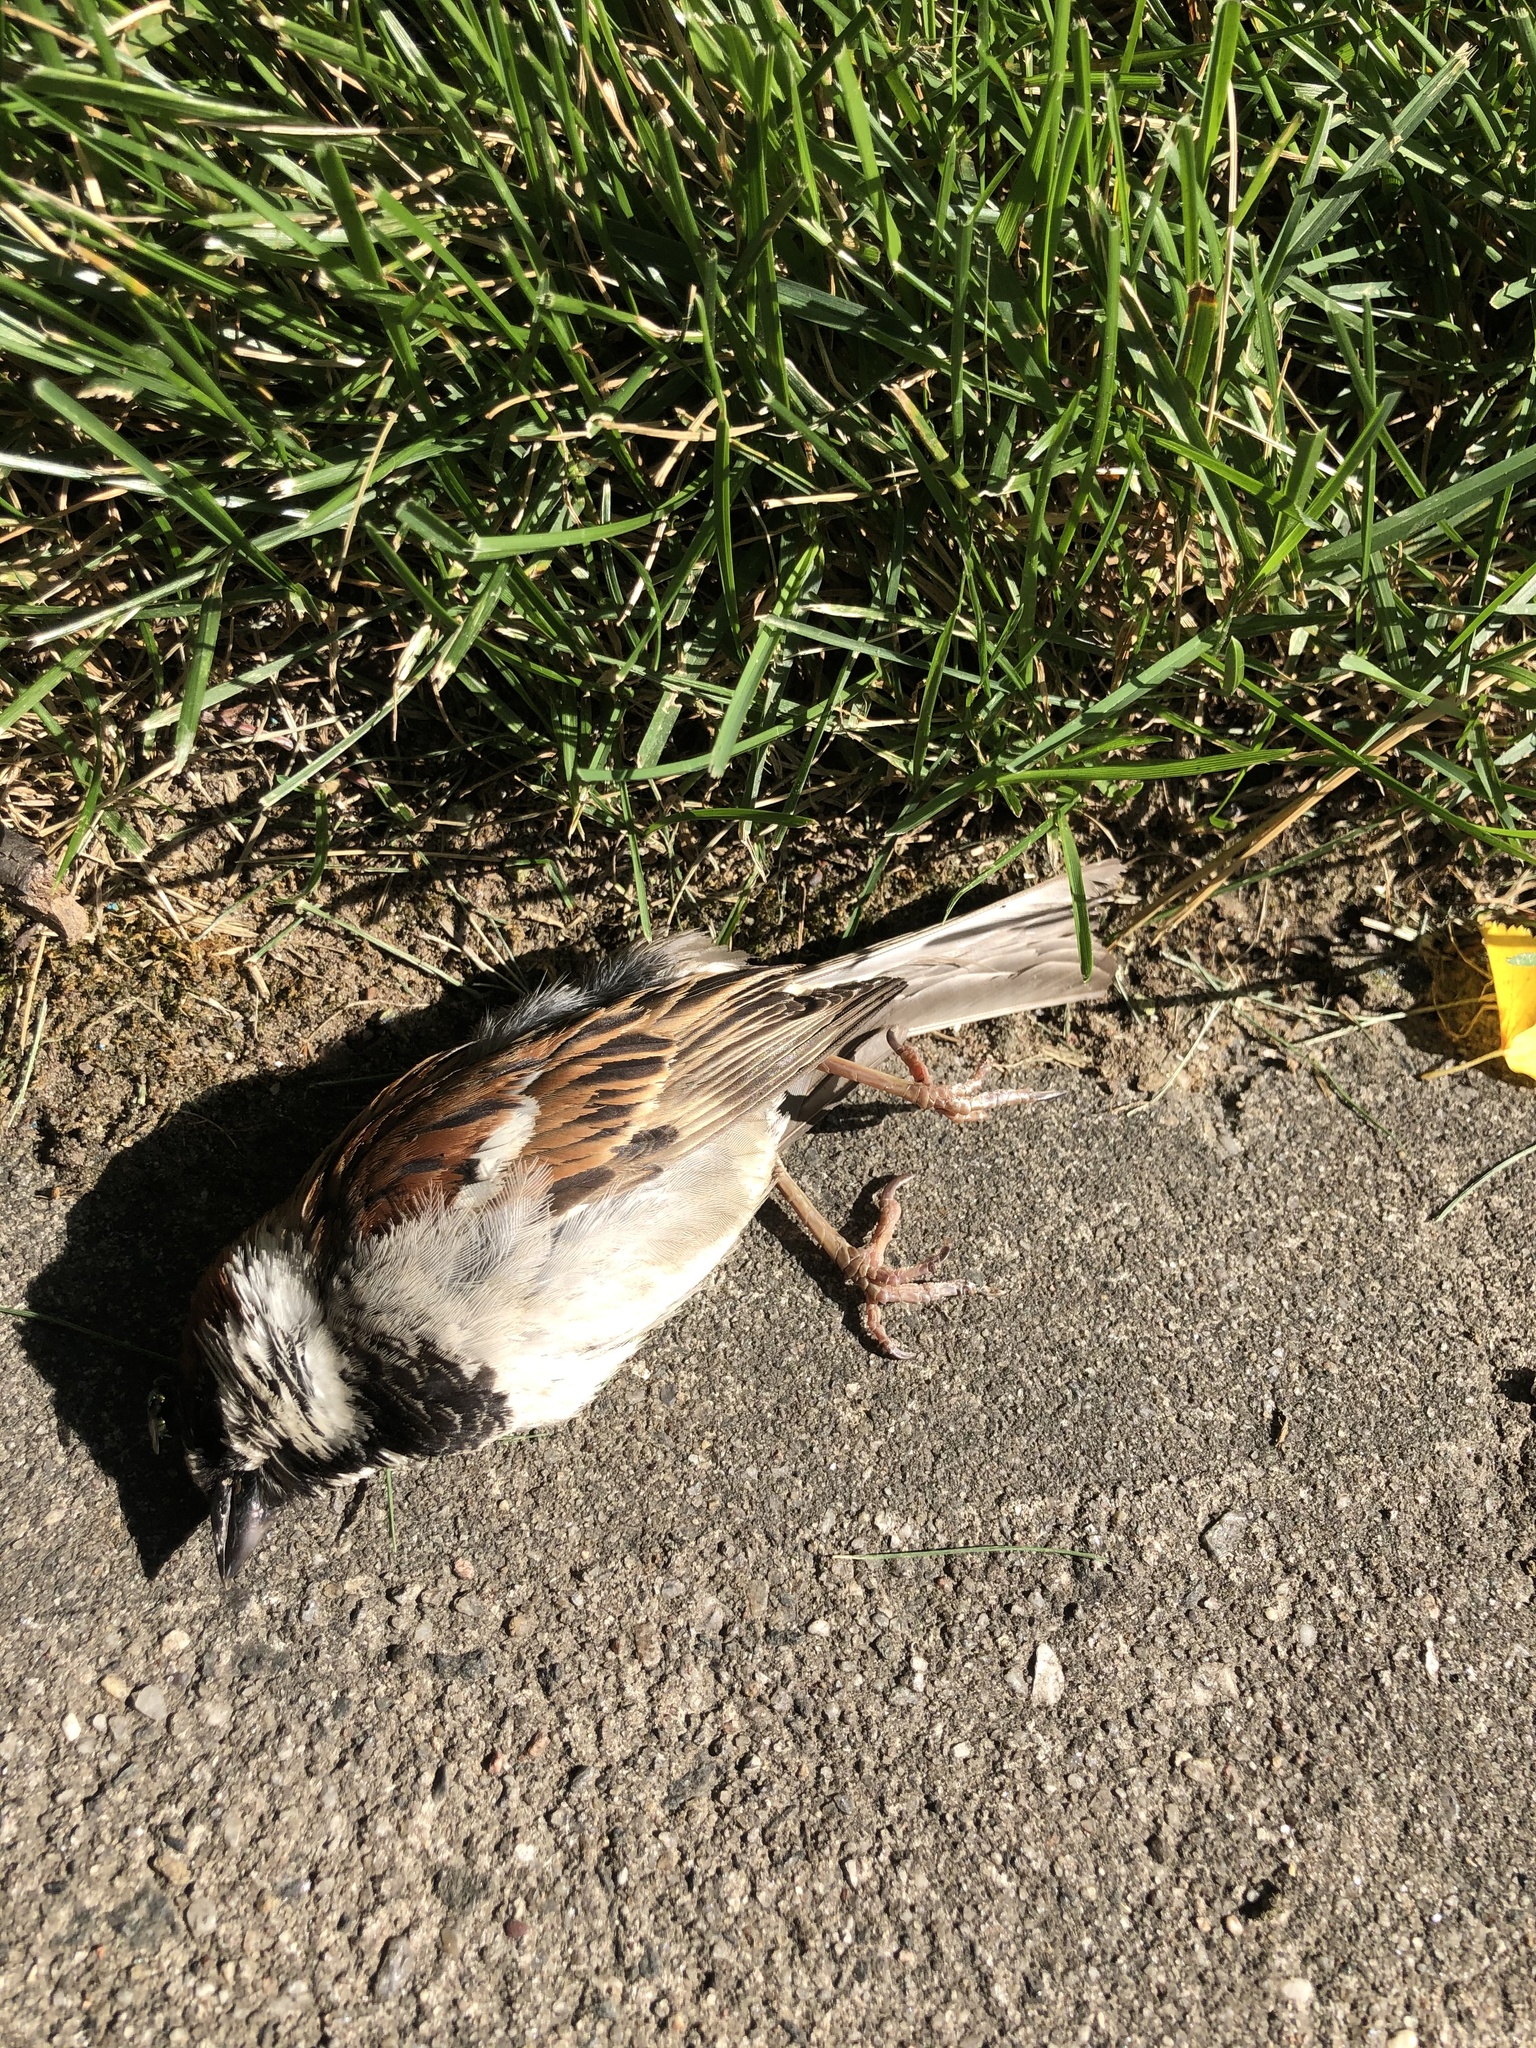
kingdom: Animalia
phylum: Chordata
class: Aves
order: Passeriformes
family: Passeridae
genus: Passer
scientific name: Passer domesticus
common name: House sparrow
